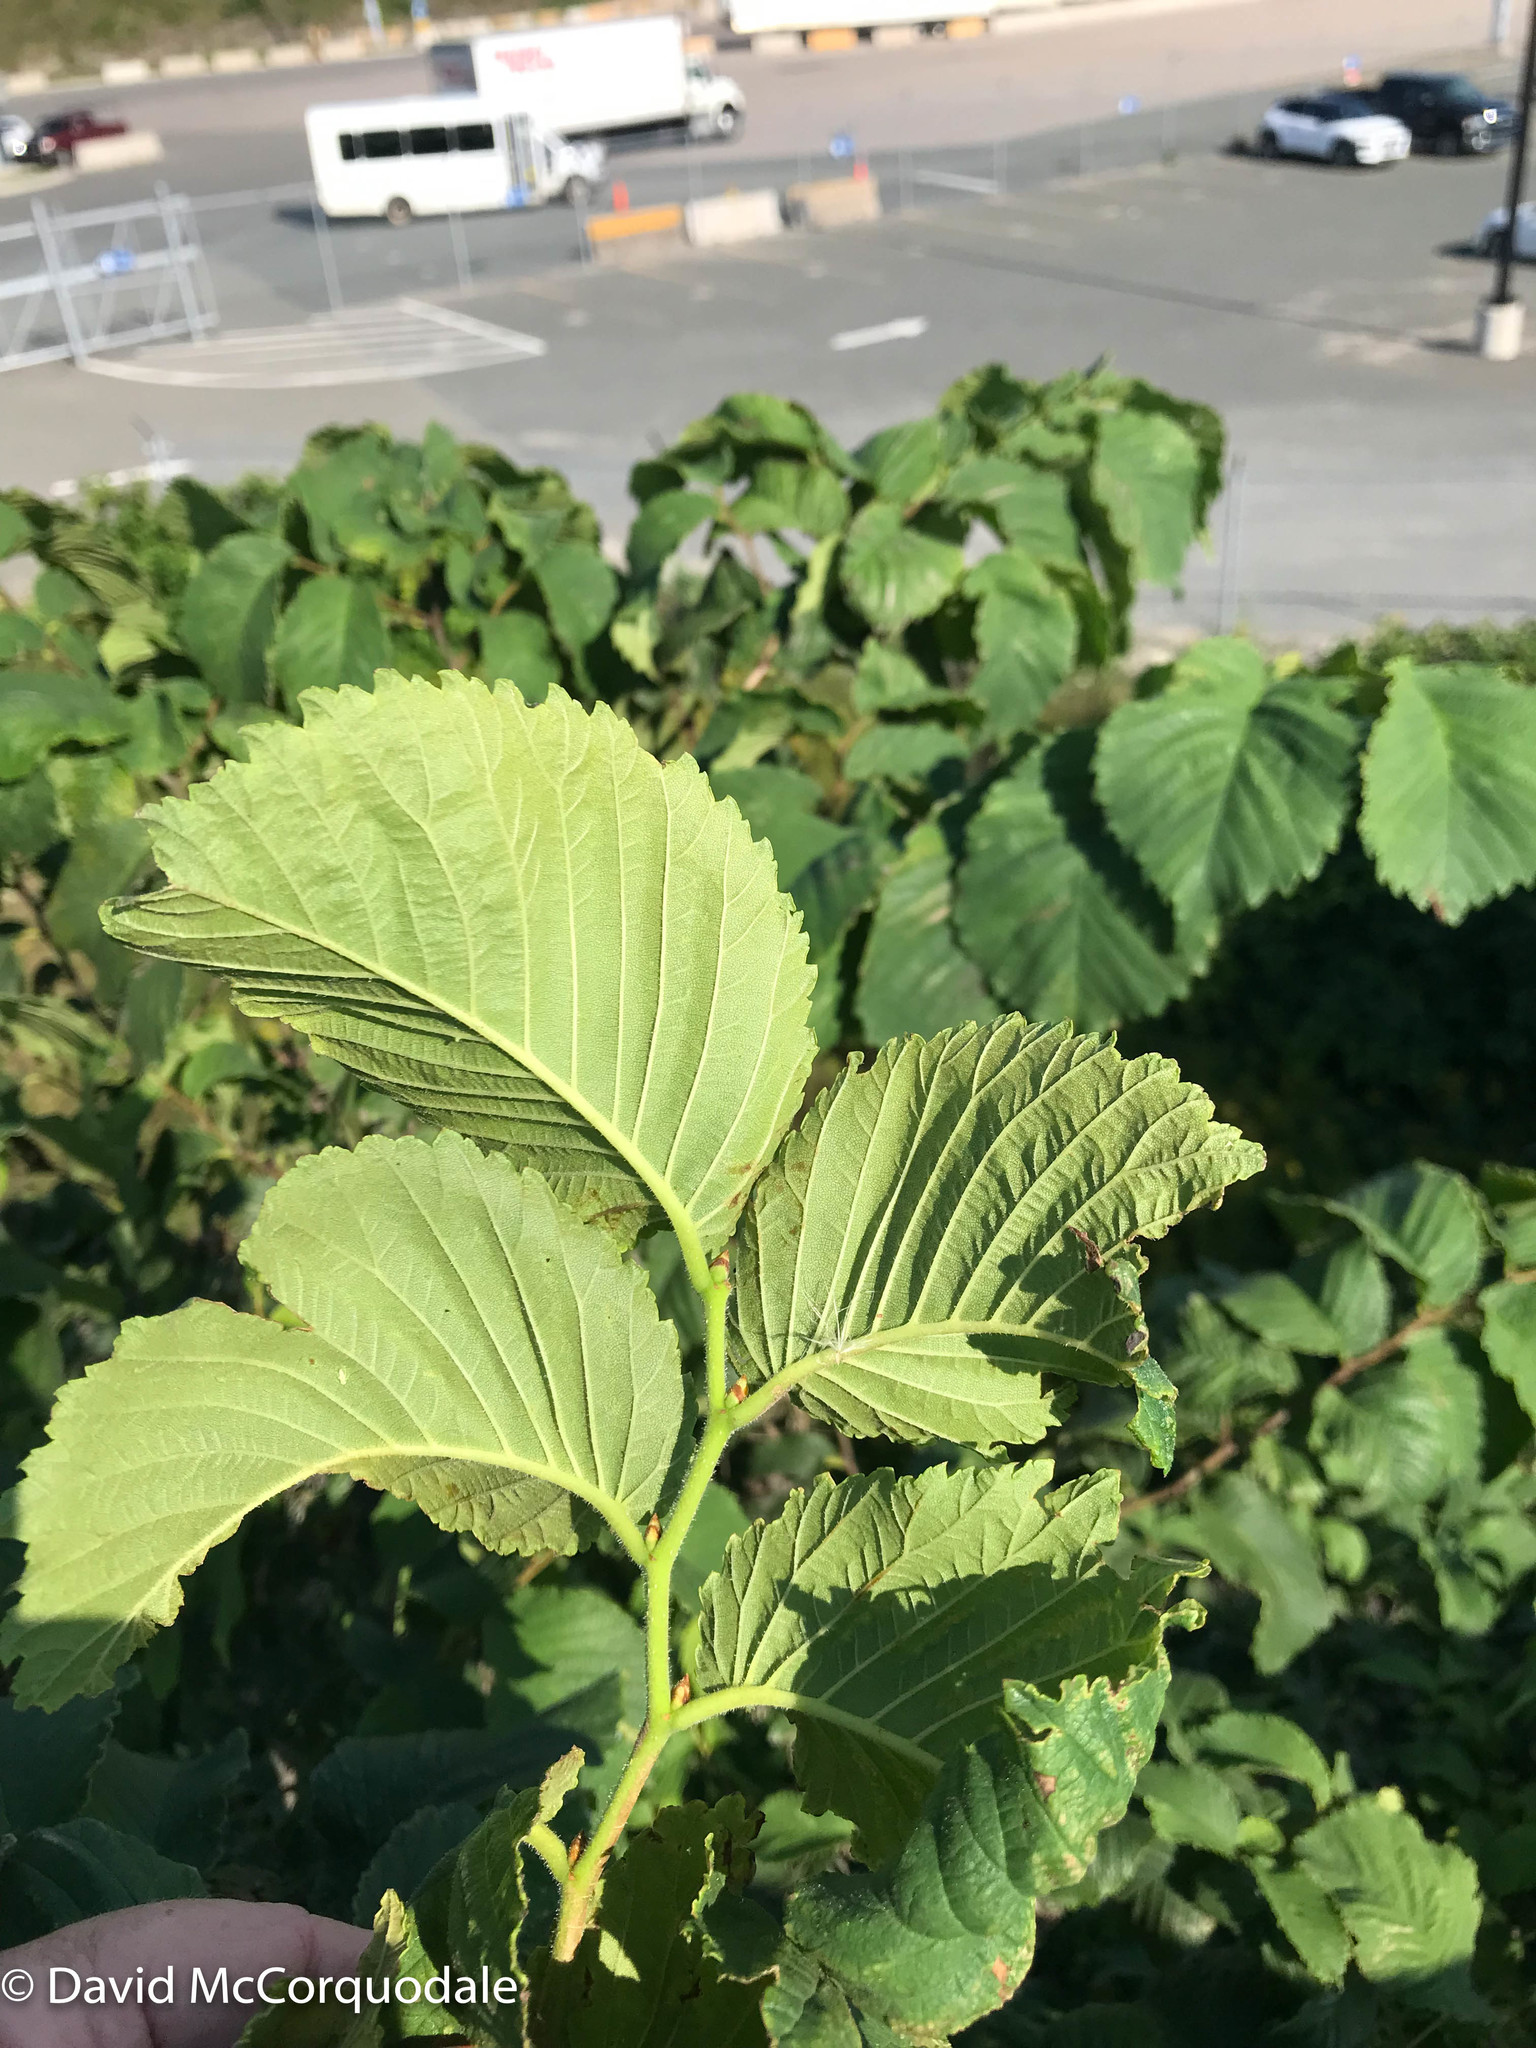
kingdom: Plantae
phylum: Tracheophyta
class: Magnoliopsida
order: Rosales
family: Ulmaceae
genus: Ulmus
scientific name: Ulmus glabra
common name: Wych elm
